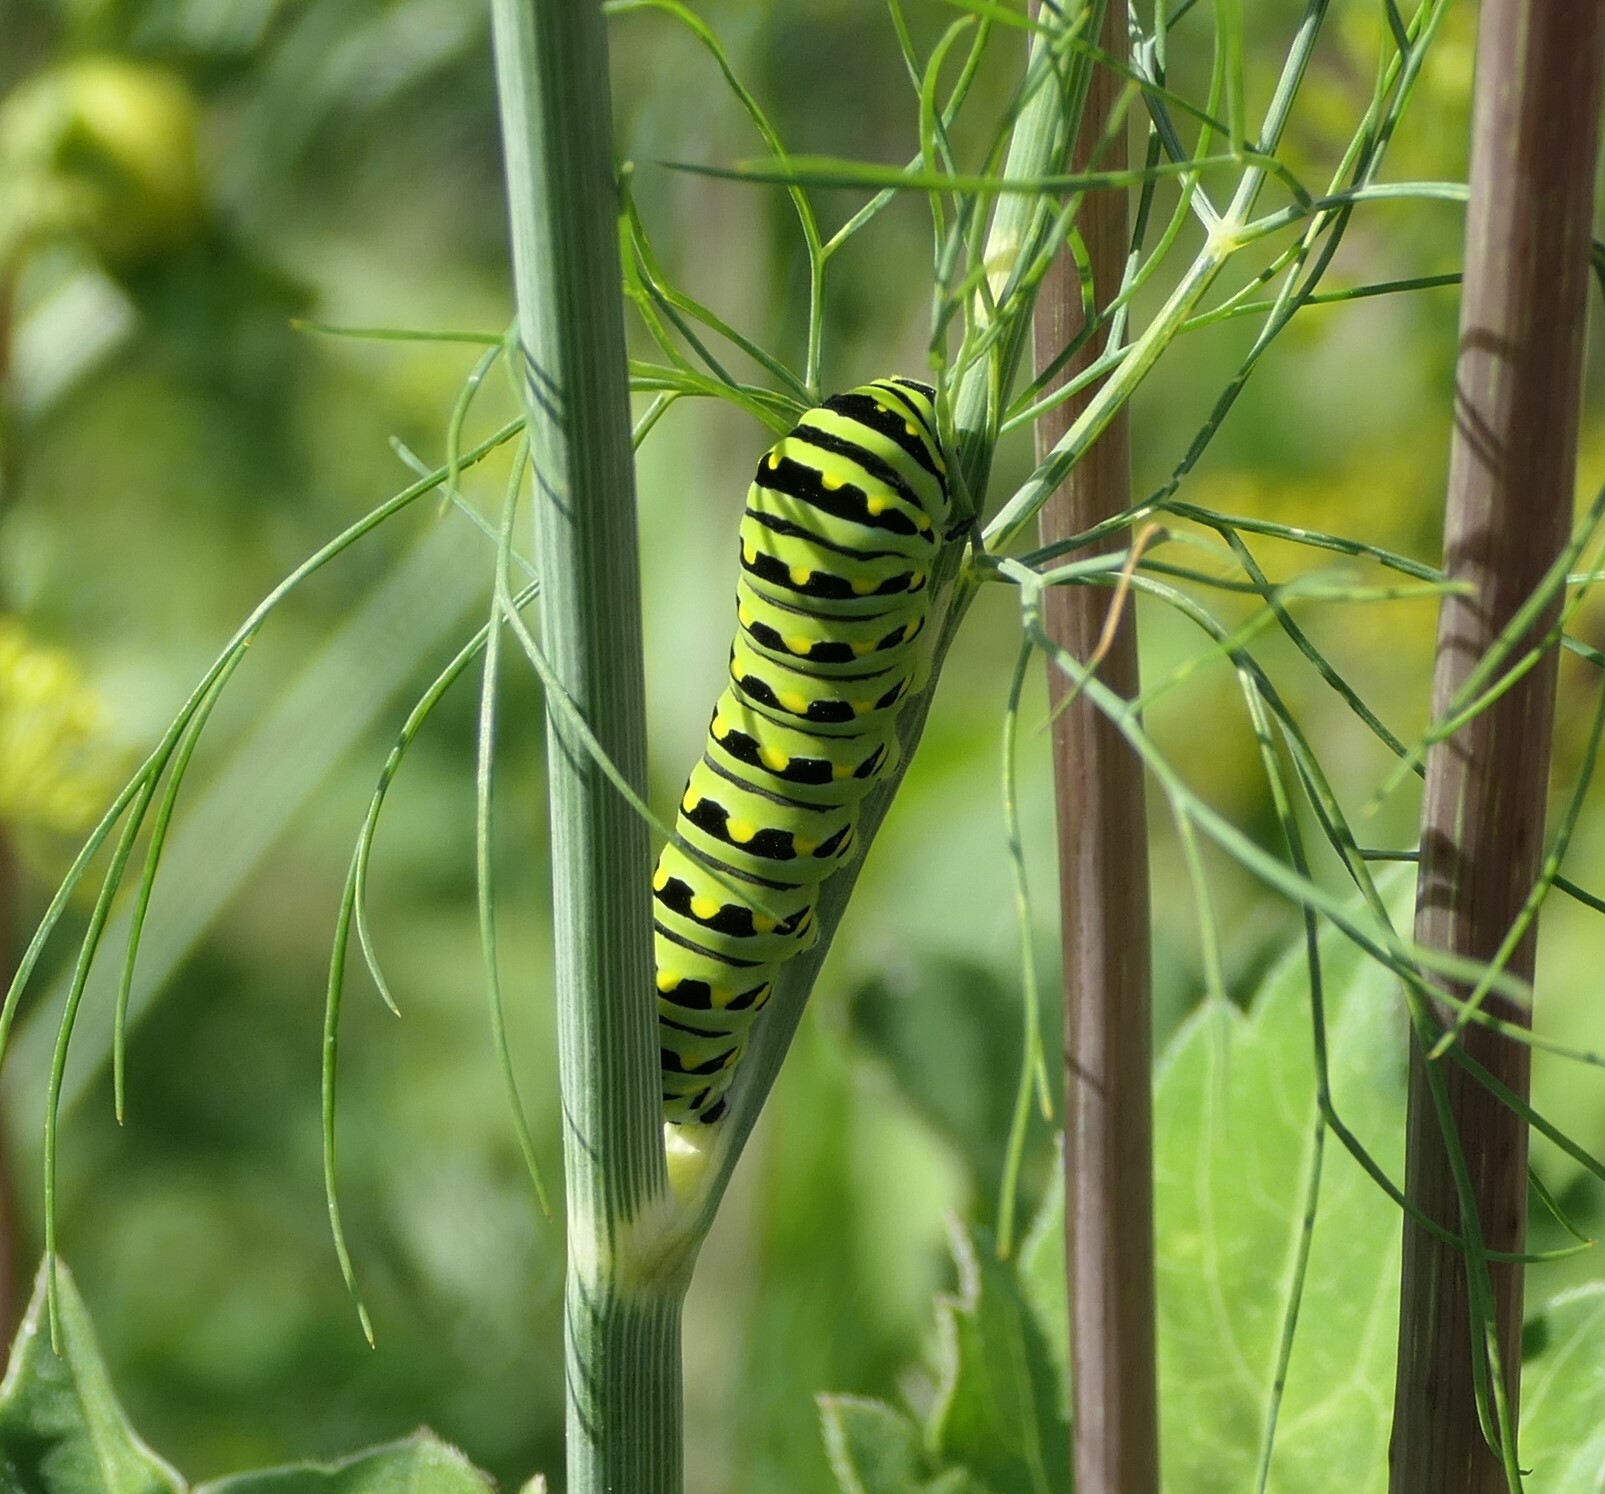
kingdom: Animalia
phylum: Arthropoda
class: Insecta
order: Lepidoptera
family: Papilionidae
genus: Papilio
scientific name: Papilio polyxenes
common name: Black swallowtail
